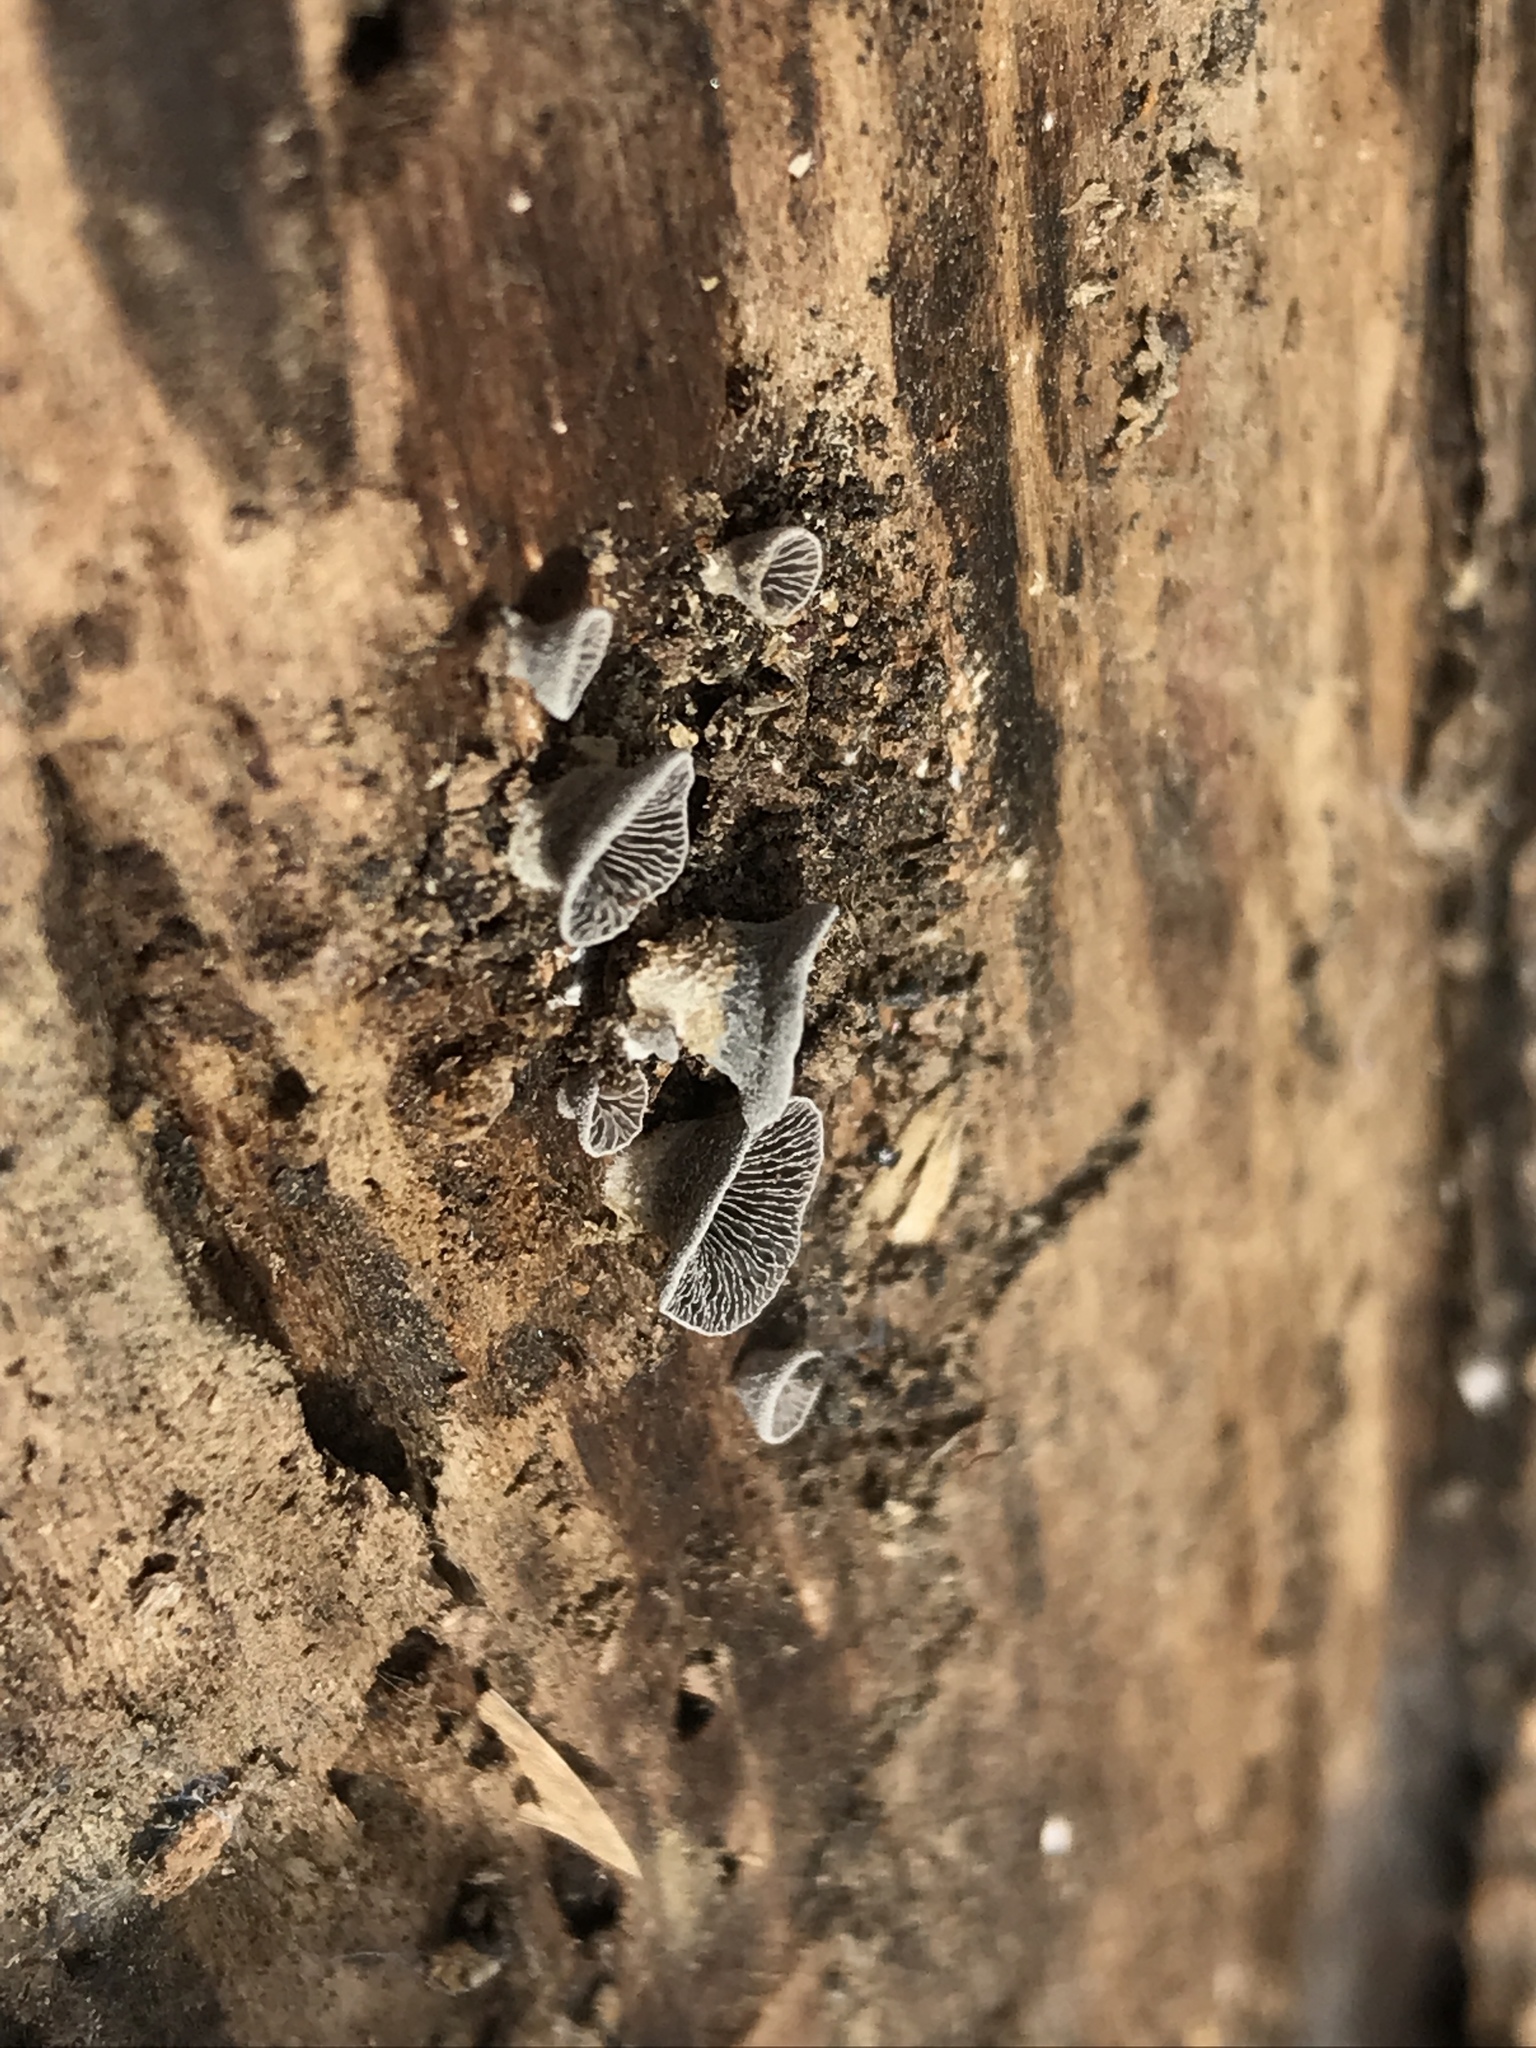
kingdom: Fungi
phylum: Basidiomycota
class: Agaricomycetes
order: Agaricales
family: Pleurotaceae
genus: Resupinatus
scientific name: Resupinatus trichotis
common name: Hairy oysterling
